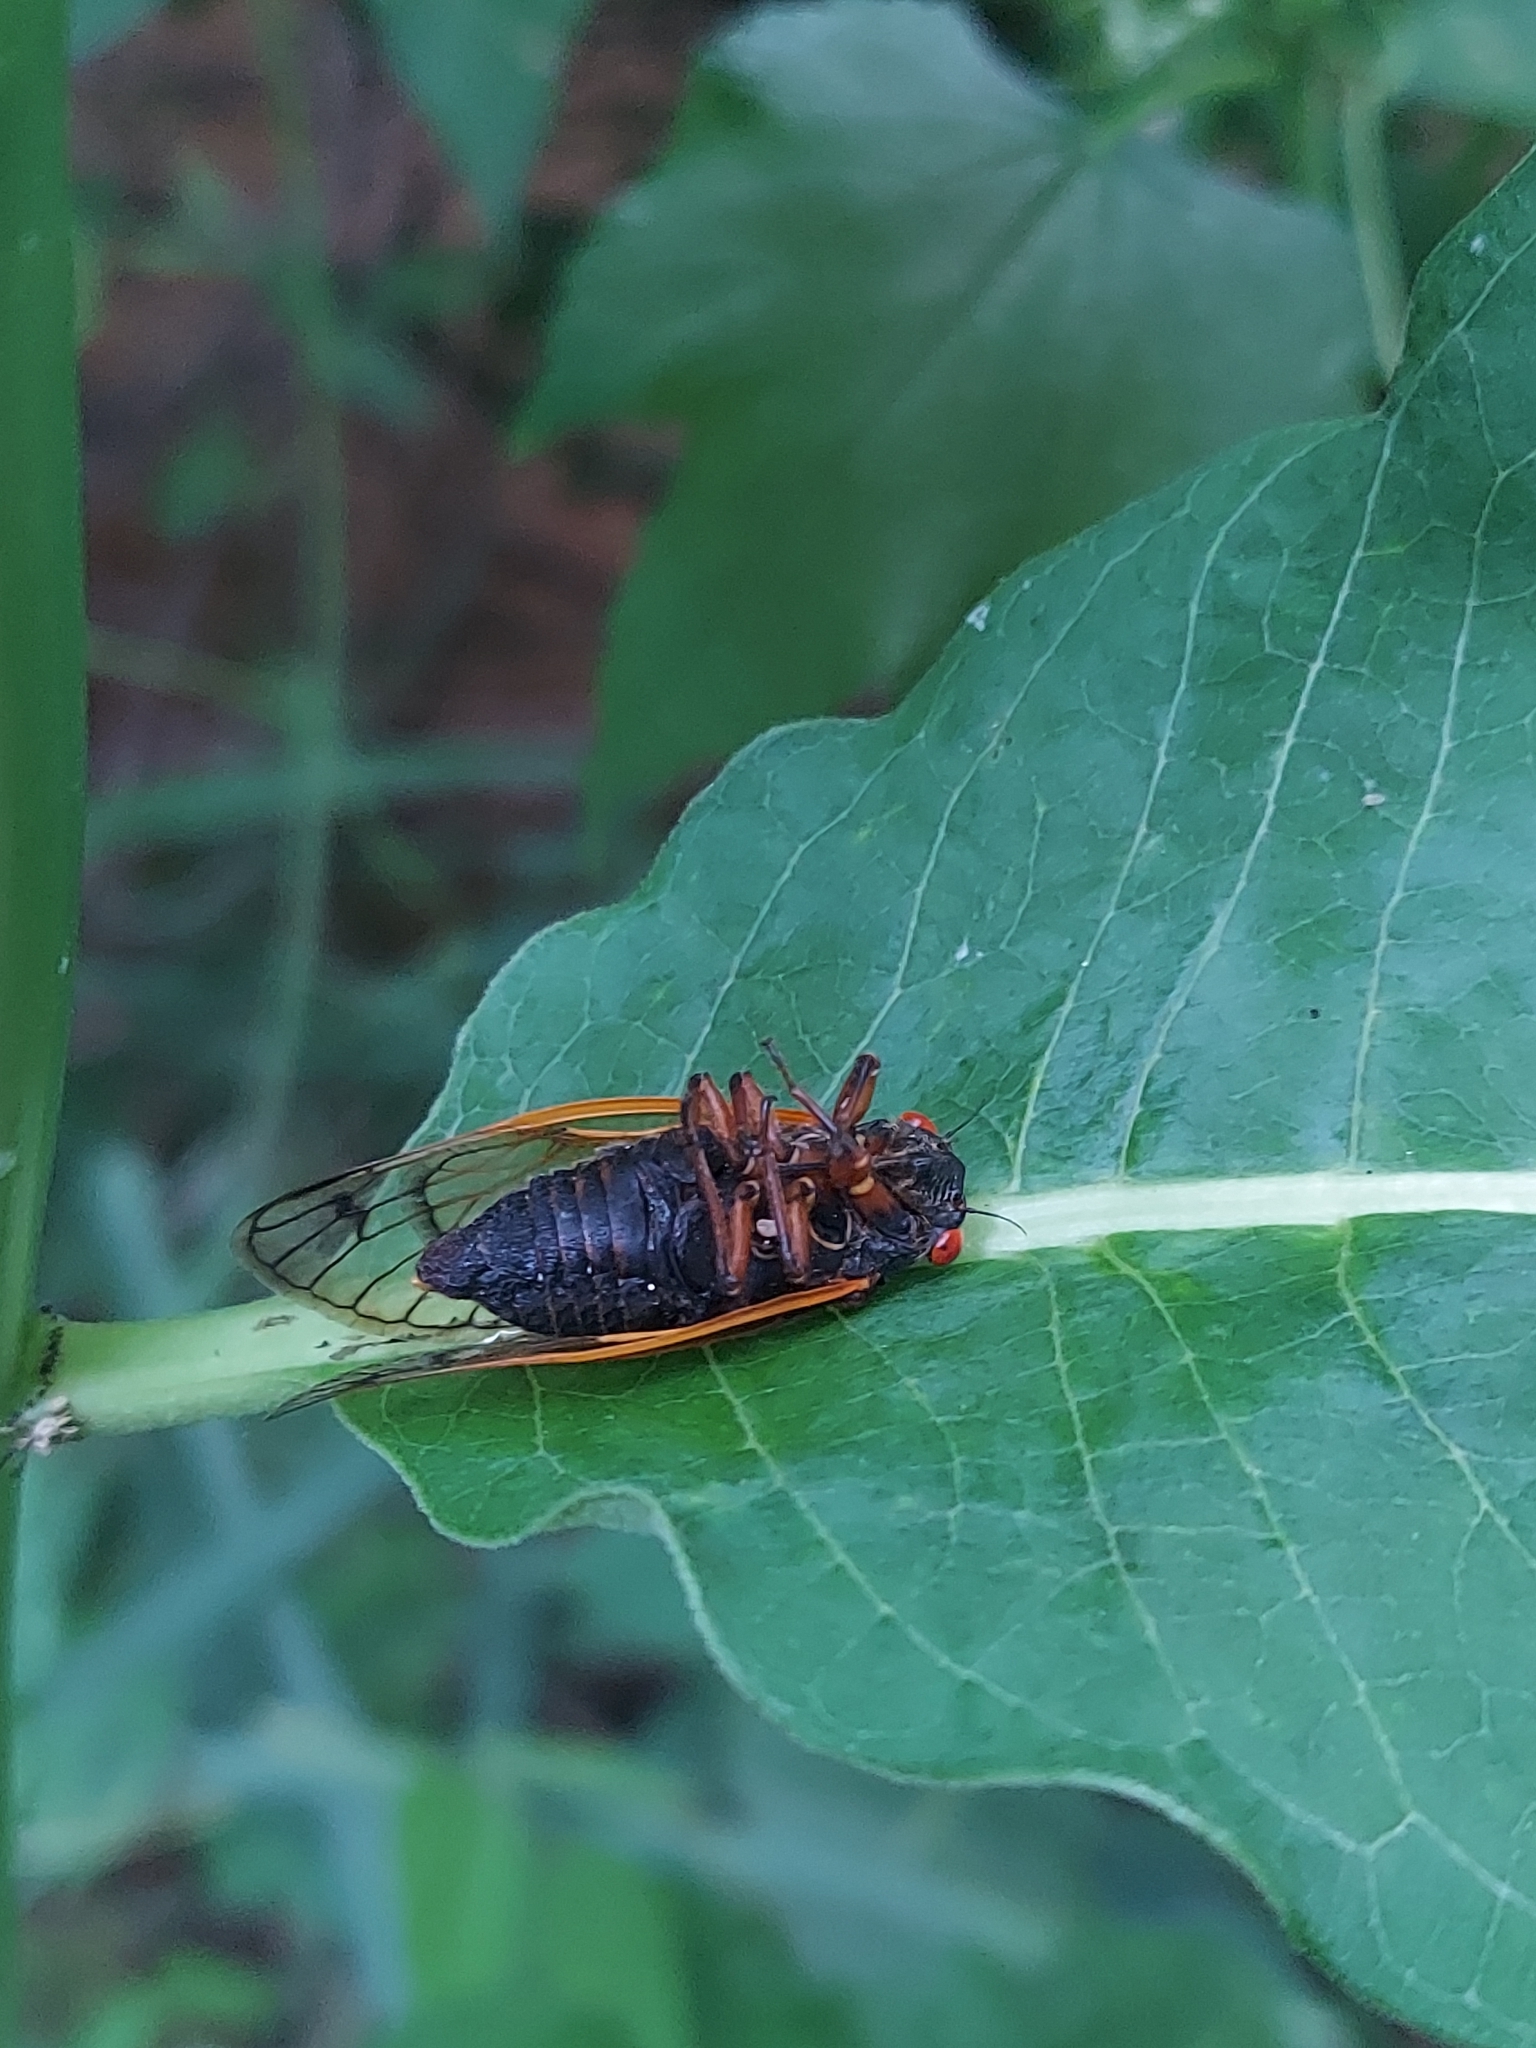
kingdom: Animalia
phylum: Arthropoda
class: Insecta
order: Hemiptera
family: Cicadidae
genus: Magicicada
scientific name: Magicicada
